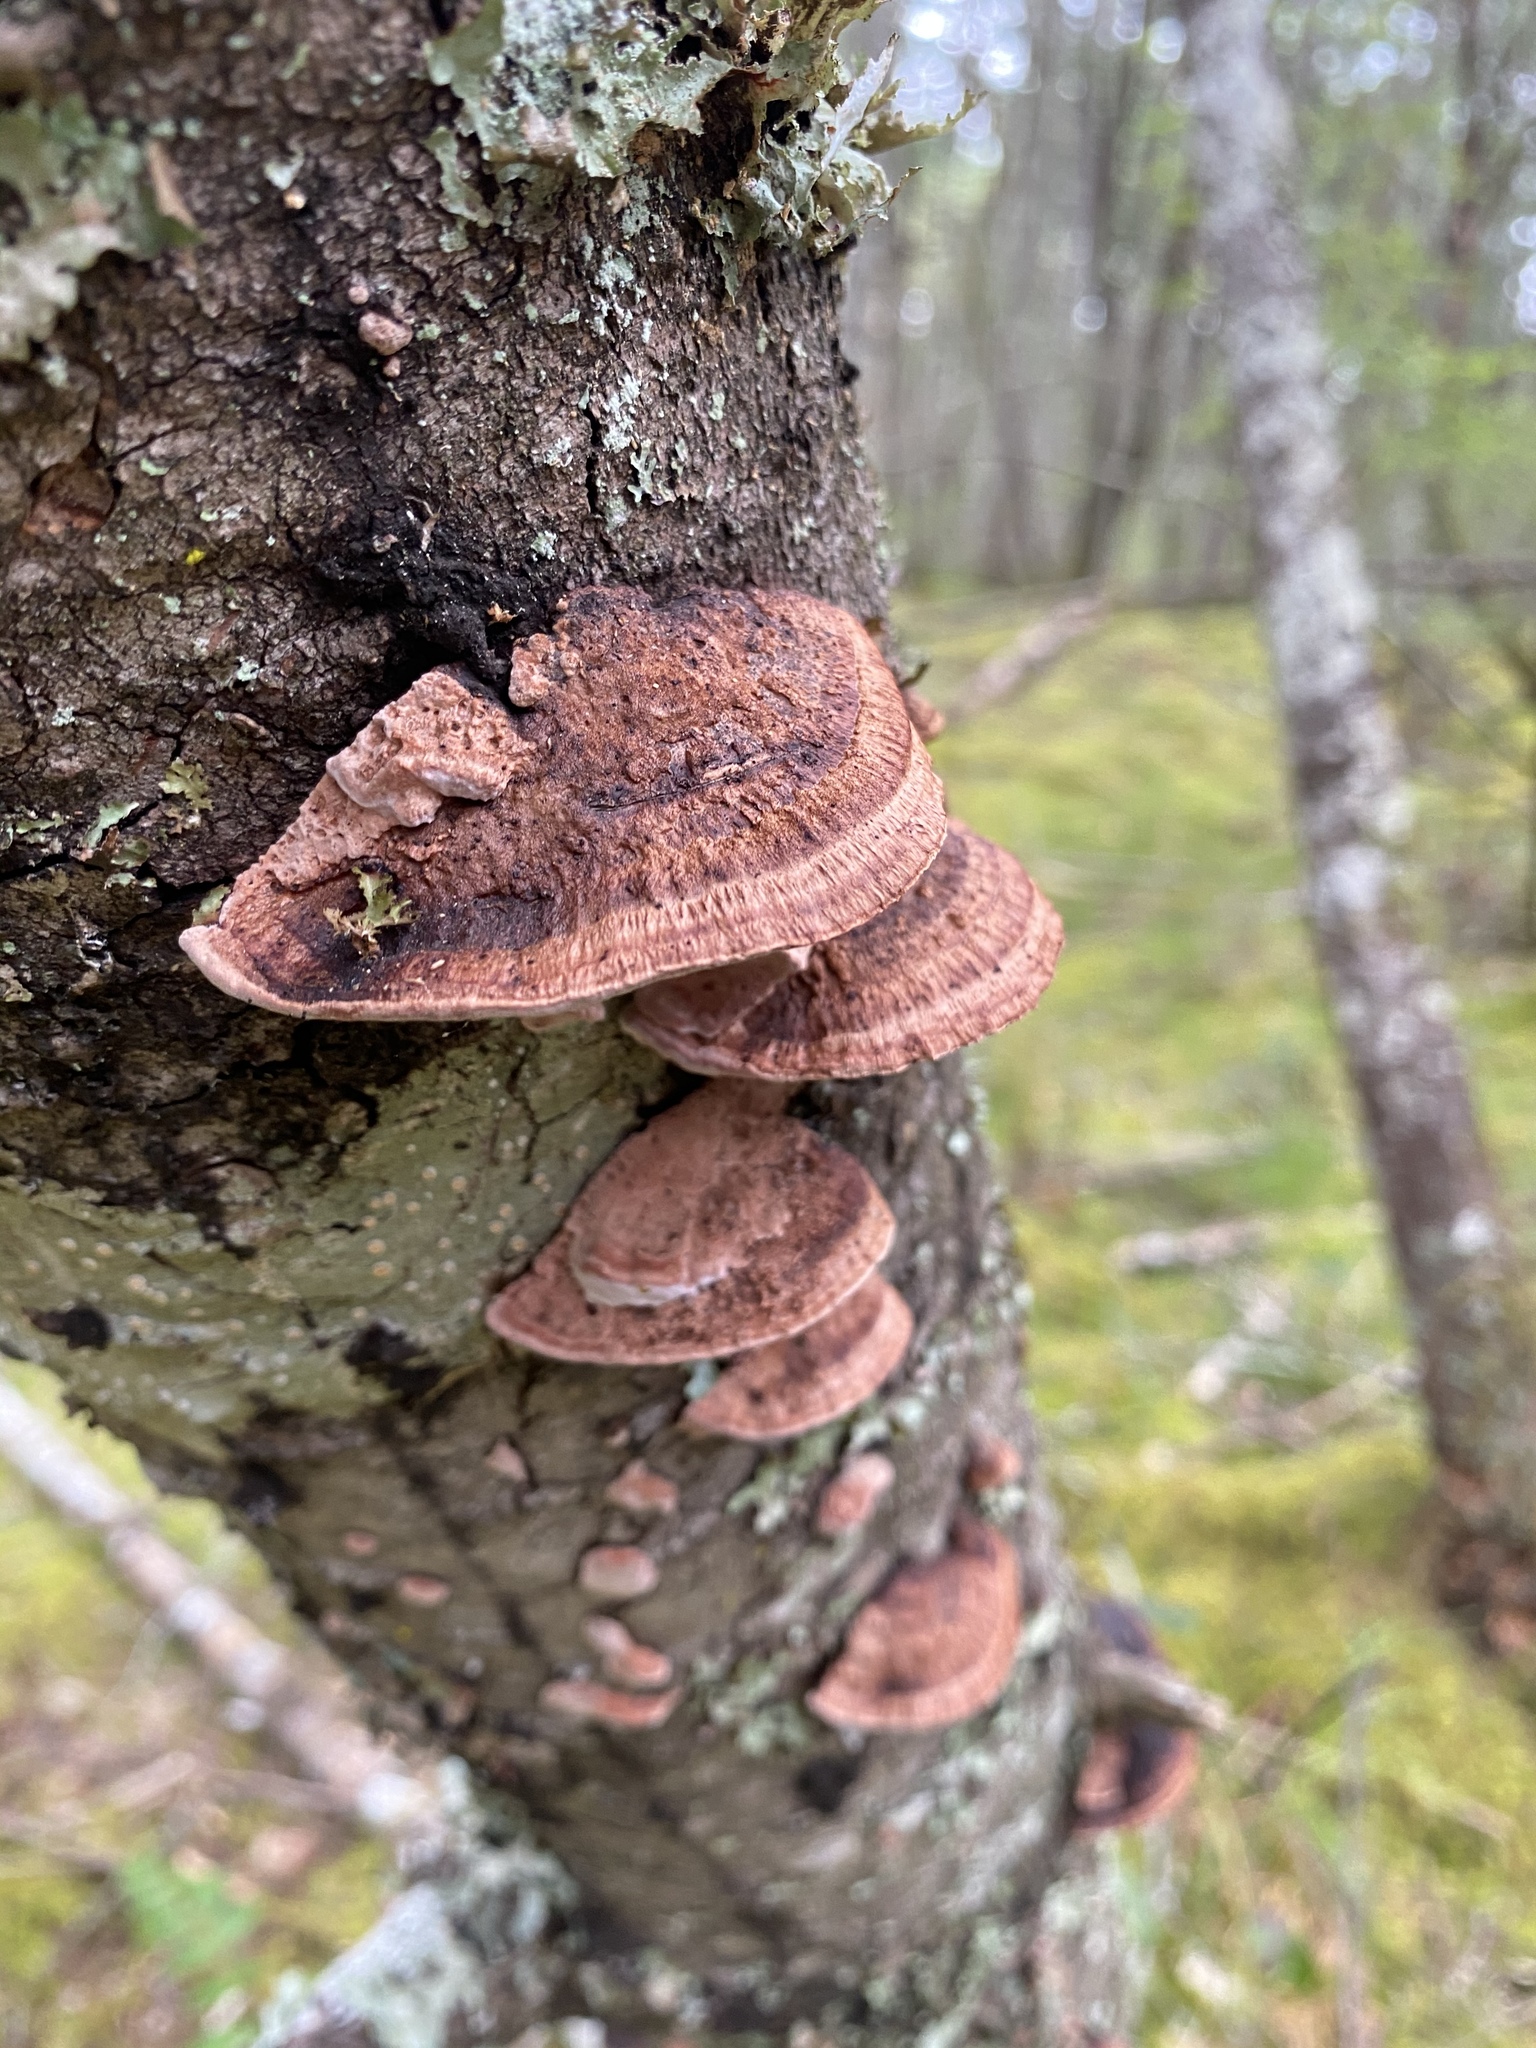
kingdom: Fungi
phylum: Basidiomycota
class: Agaricomycetes
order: Polyporales
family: Fomitopsidaceae
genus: Rhodofomes
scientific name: Rhodofomes cajanderi
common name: Rosy conk
